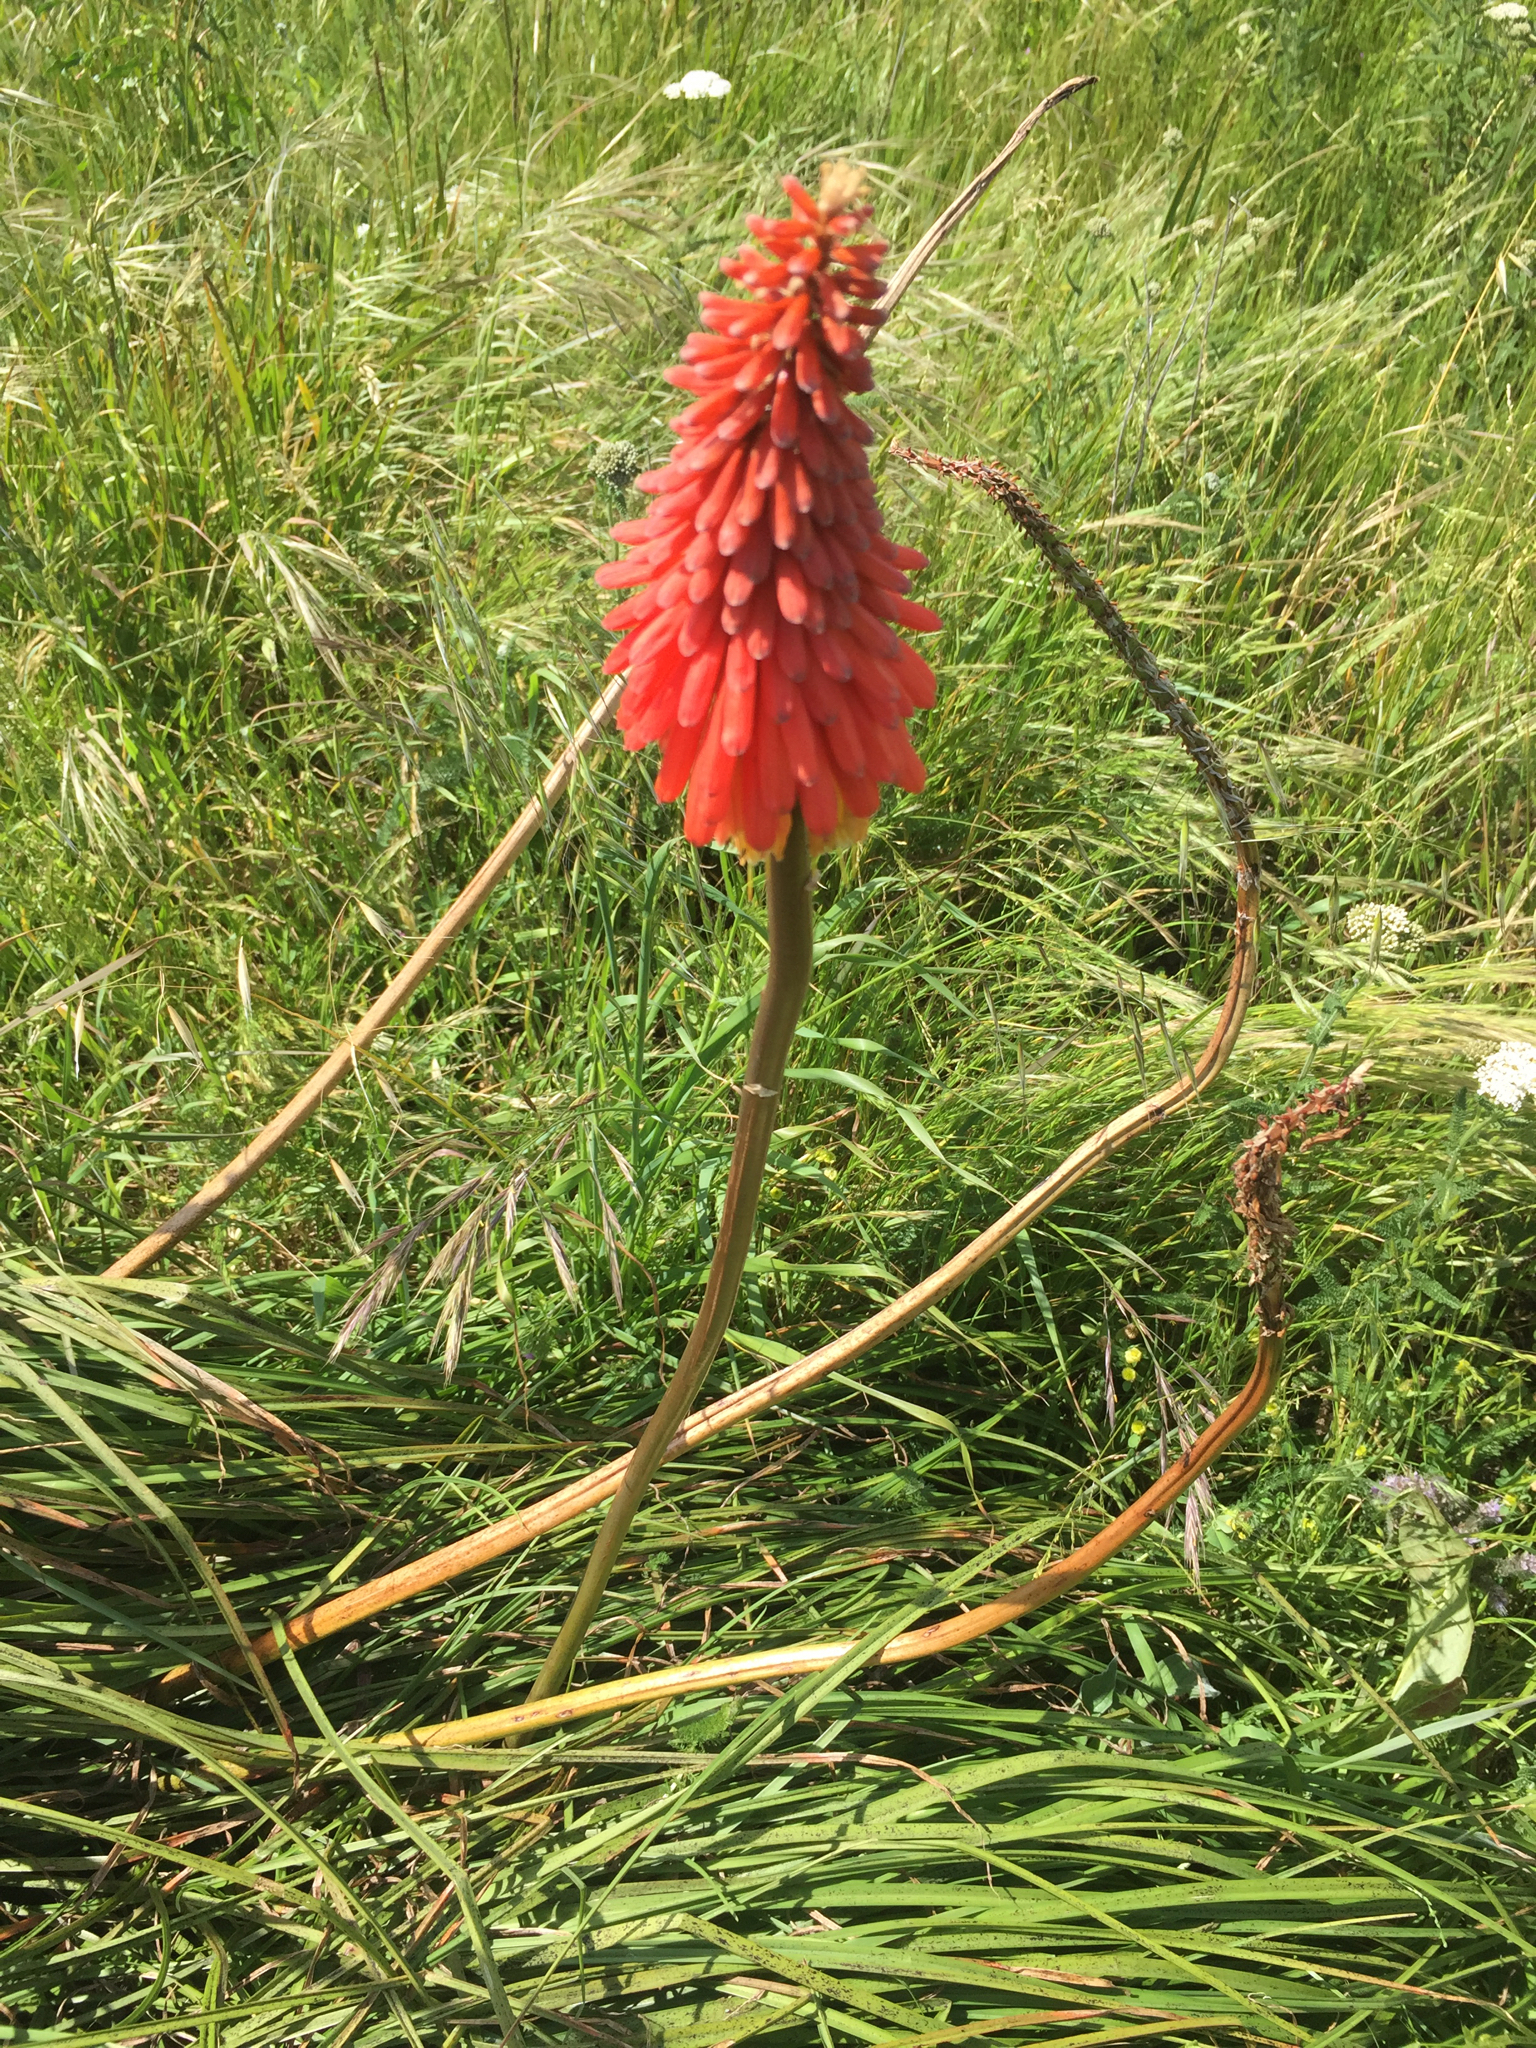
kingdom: Plantae
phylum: Tracheophyta
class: Liliopsida
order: Asparagales
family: Asphodelaceae
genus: Kniphofia
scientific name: Kniphofia uvaria
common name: Red-hot-poker
